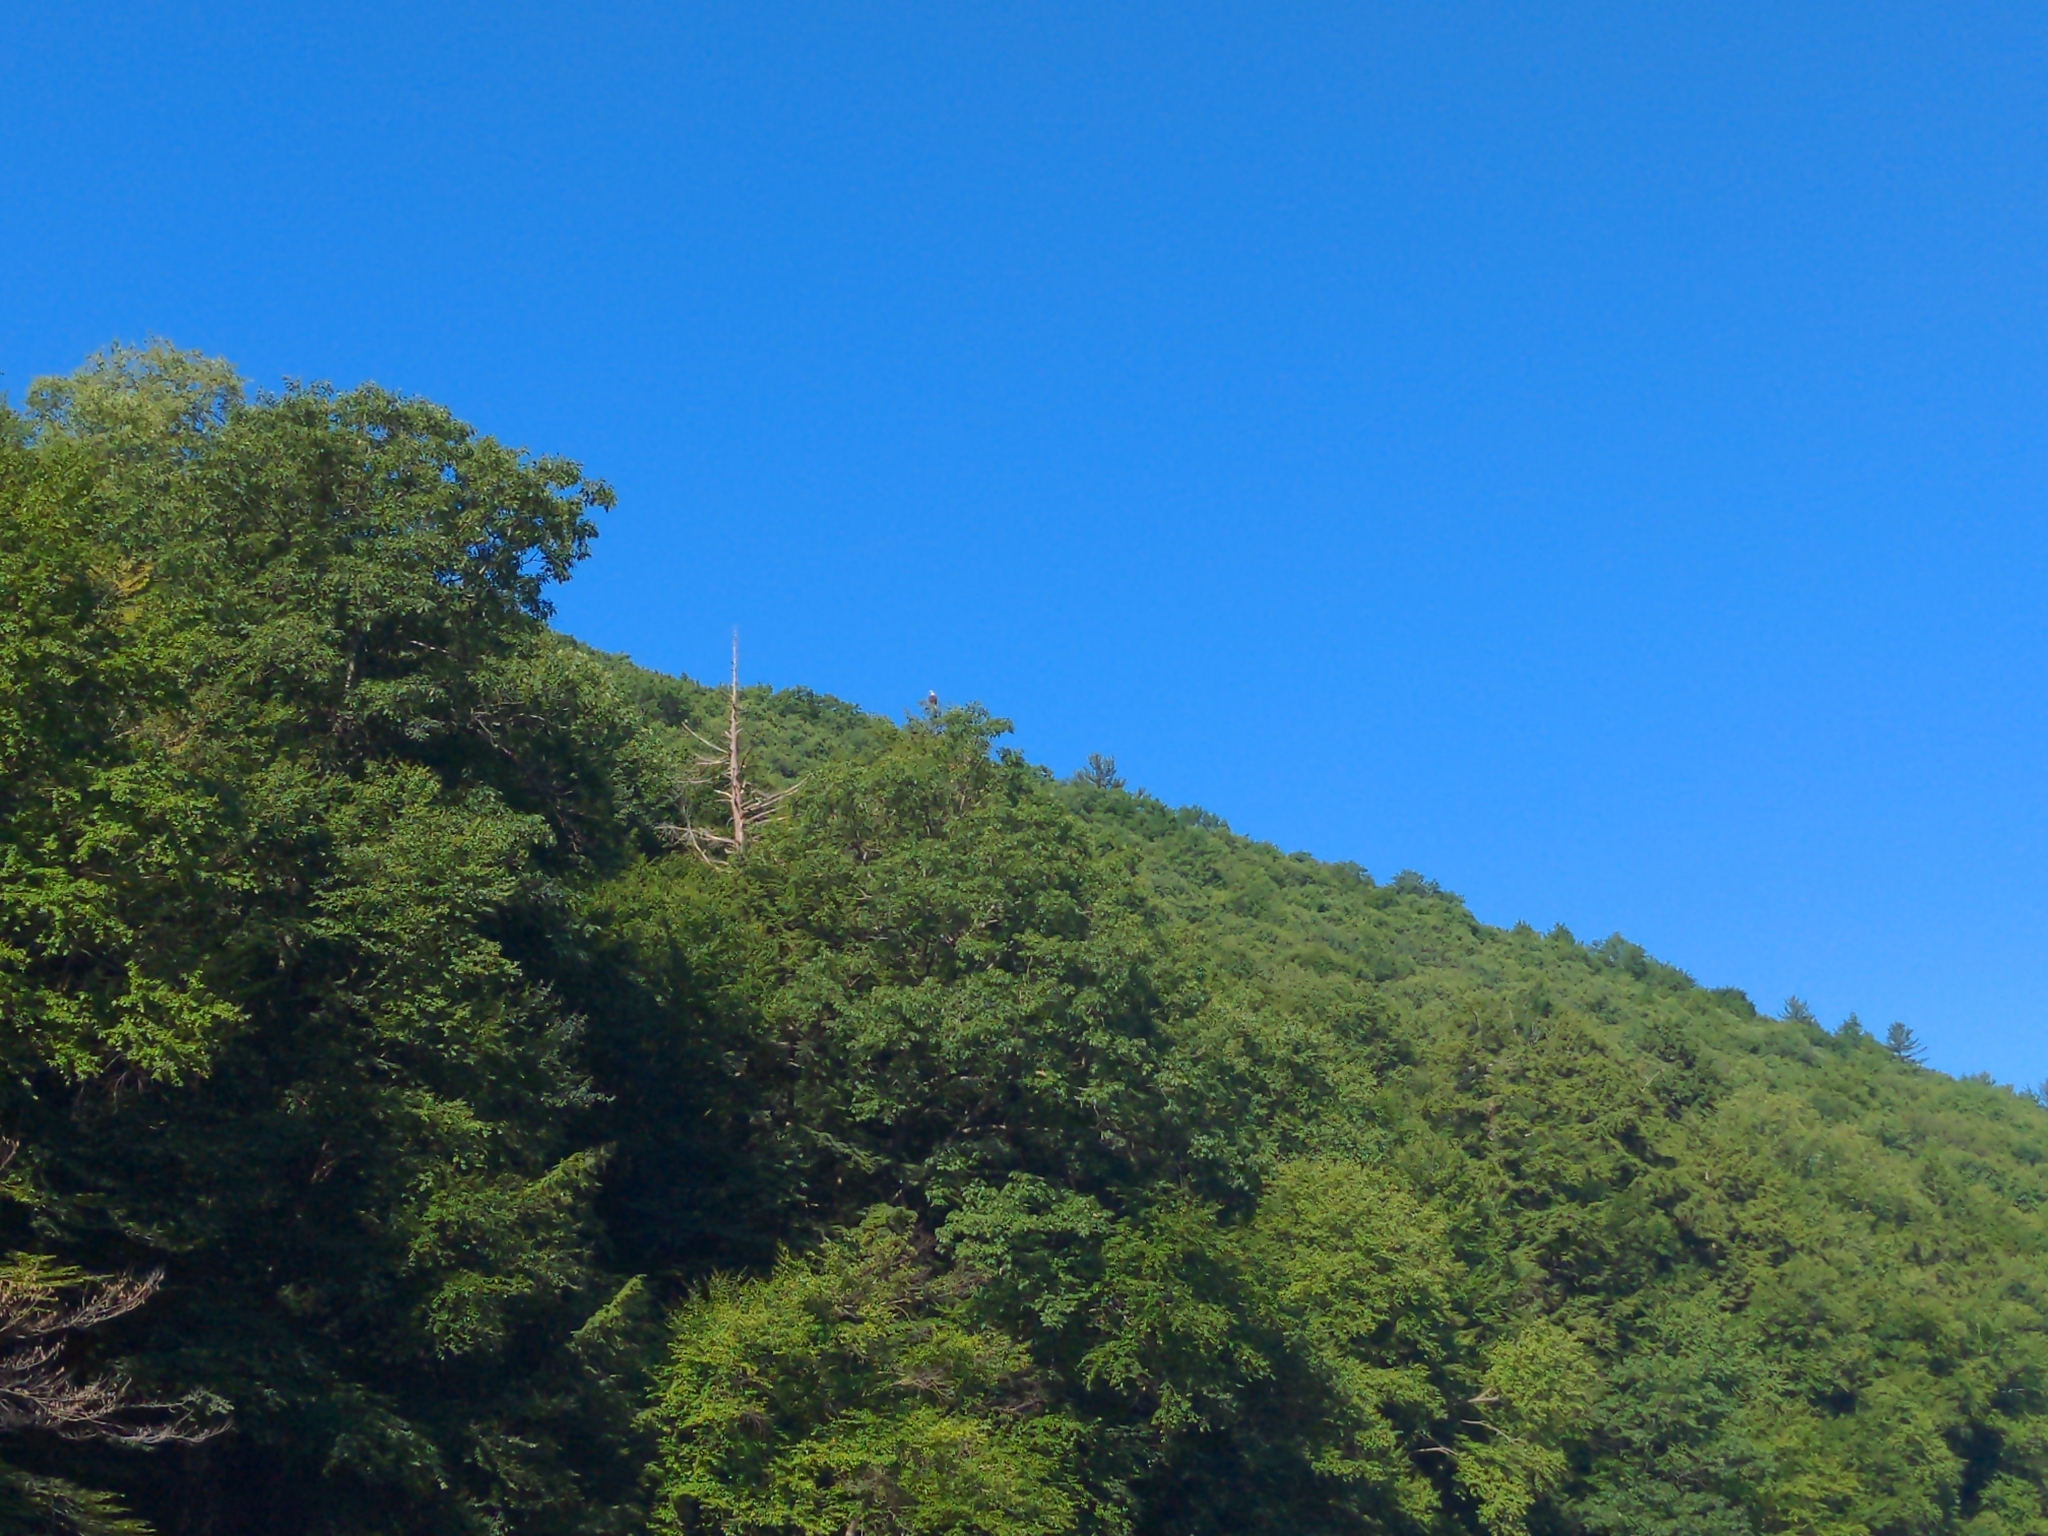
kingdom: Animalia
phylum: Chordata
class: Aves
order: Accipitriformes
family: Accipitridae
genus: Haliaeetus
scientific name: Haliaeetus leucocephalus
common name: Bald eagle
